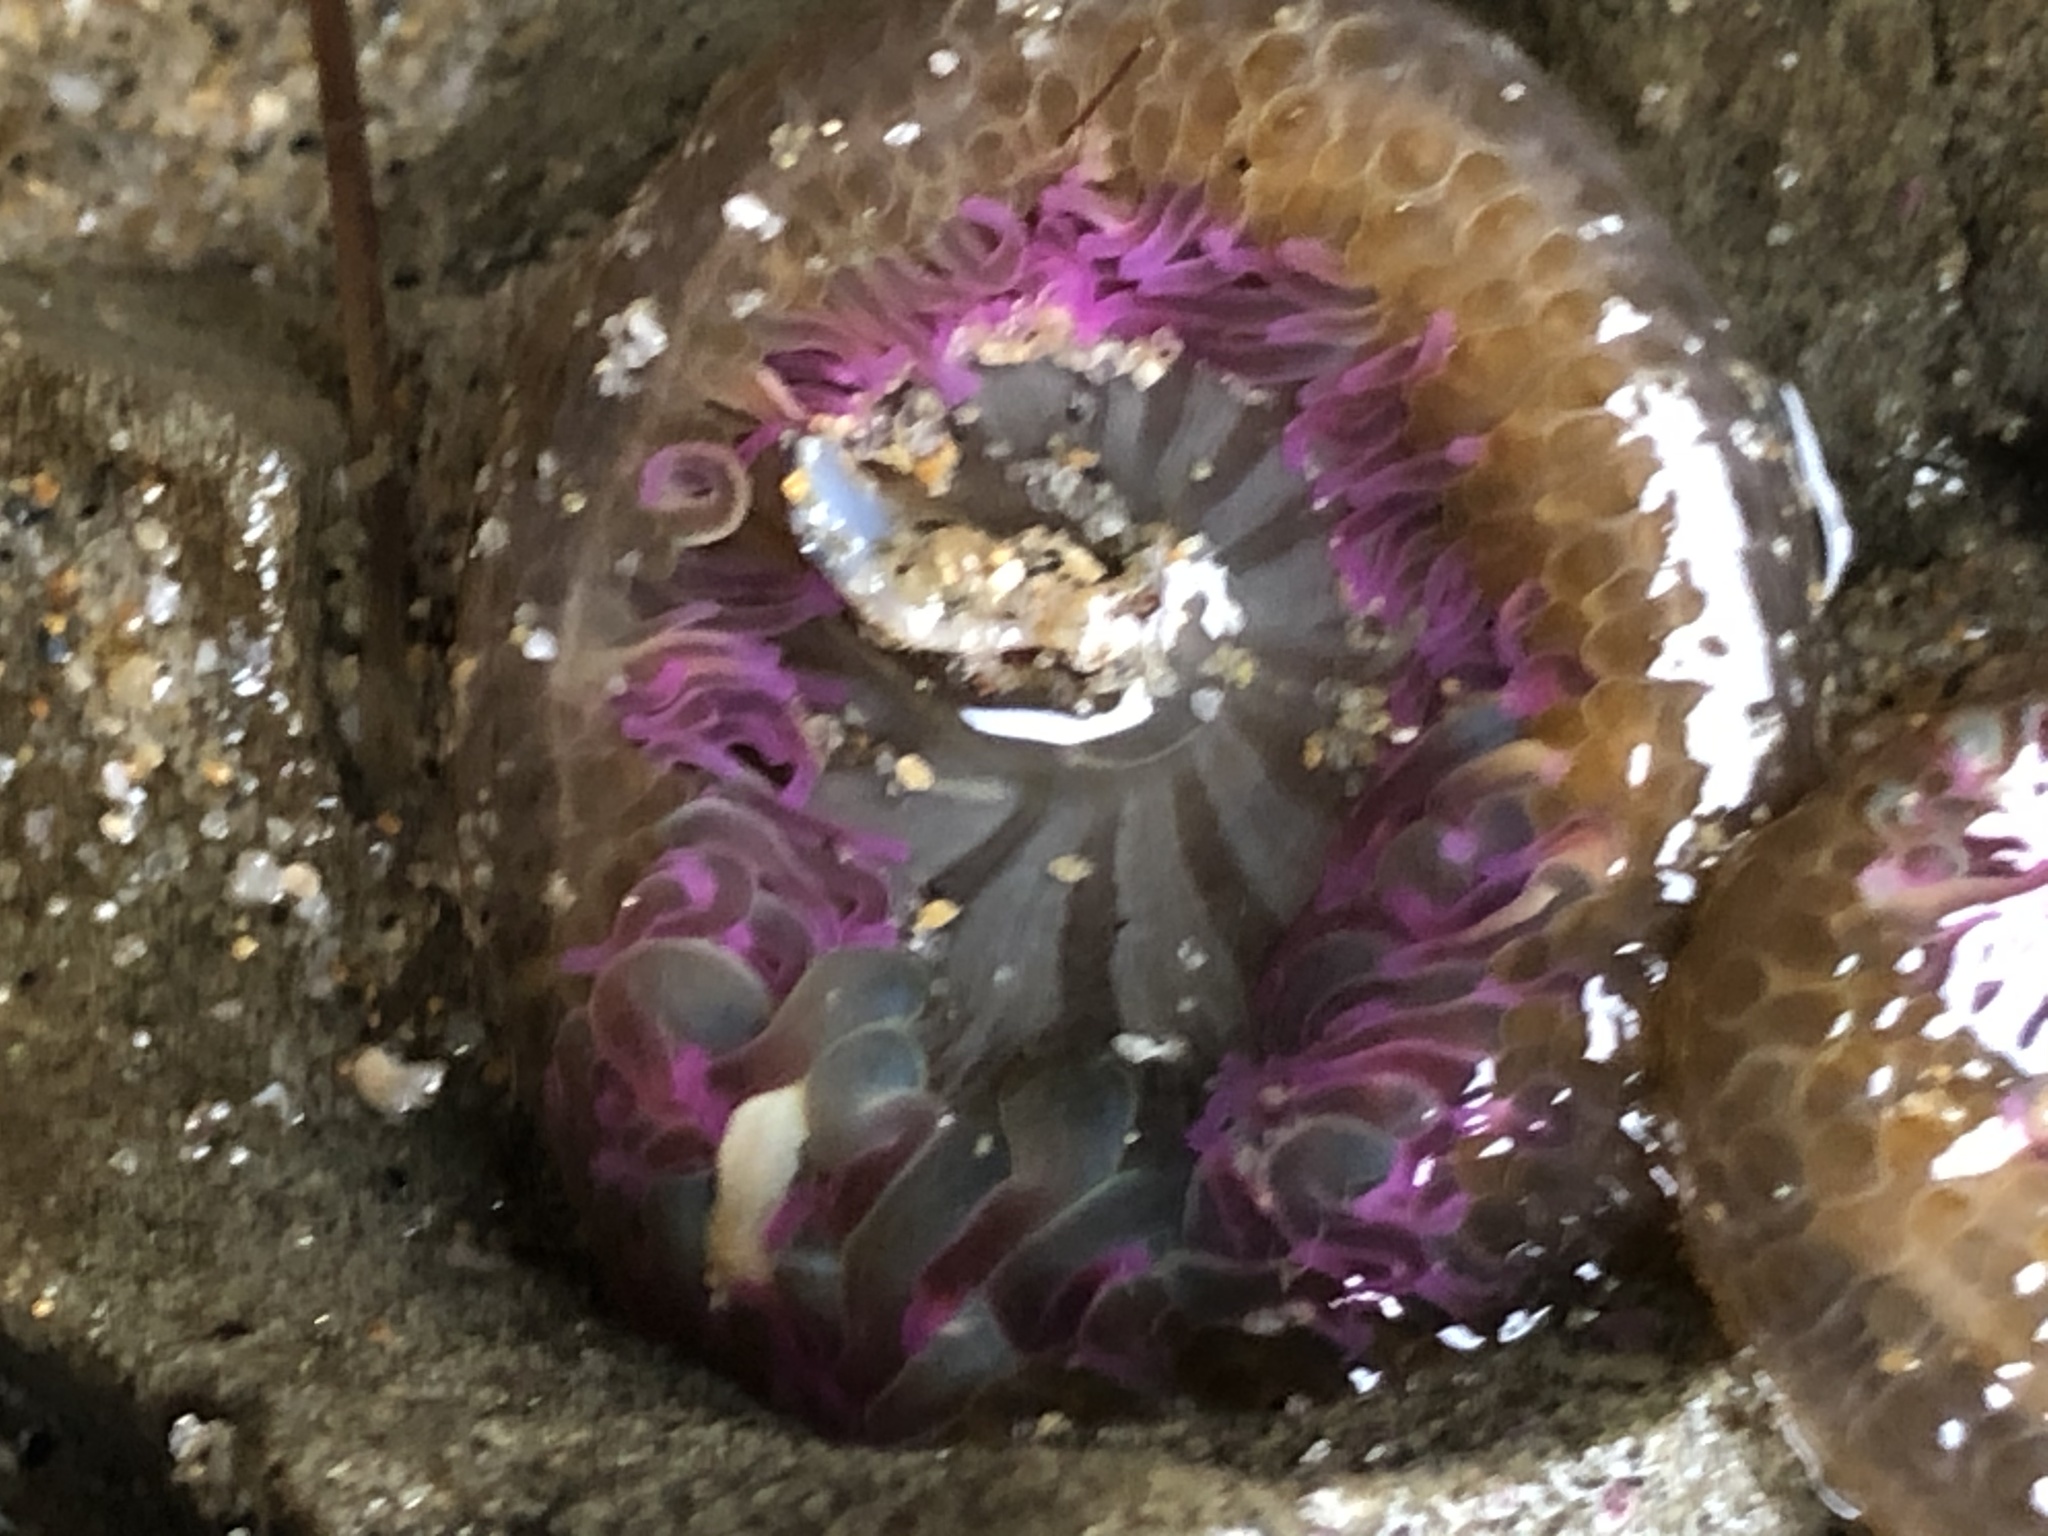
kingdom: Animalia
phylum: Cnidaria
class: Anthozoa
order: Actiniaria
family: Actiniidae
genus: Anthopleura
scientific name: Anthopleura elegantissima
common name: Clonal anemone
